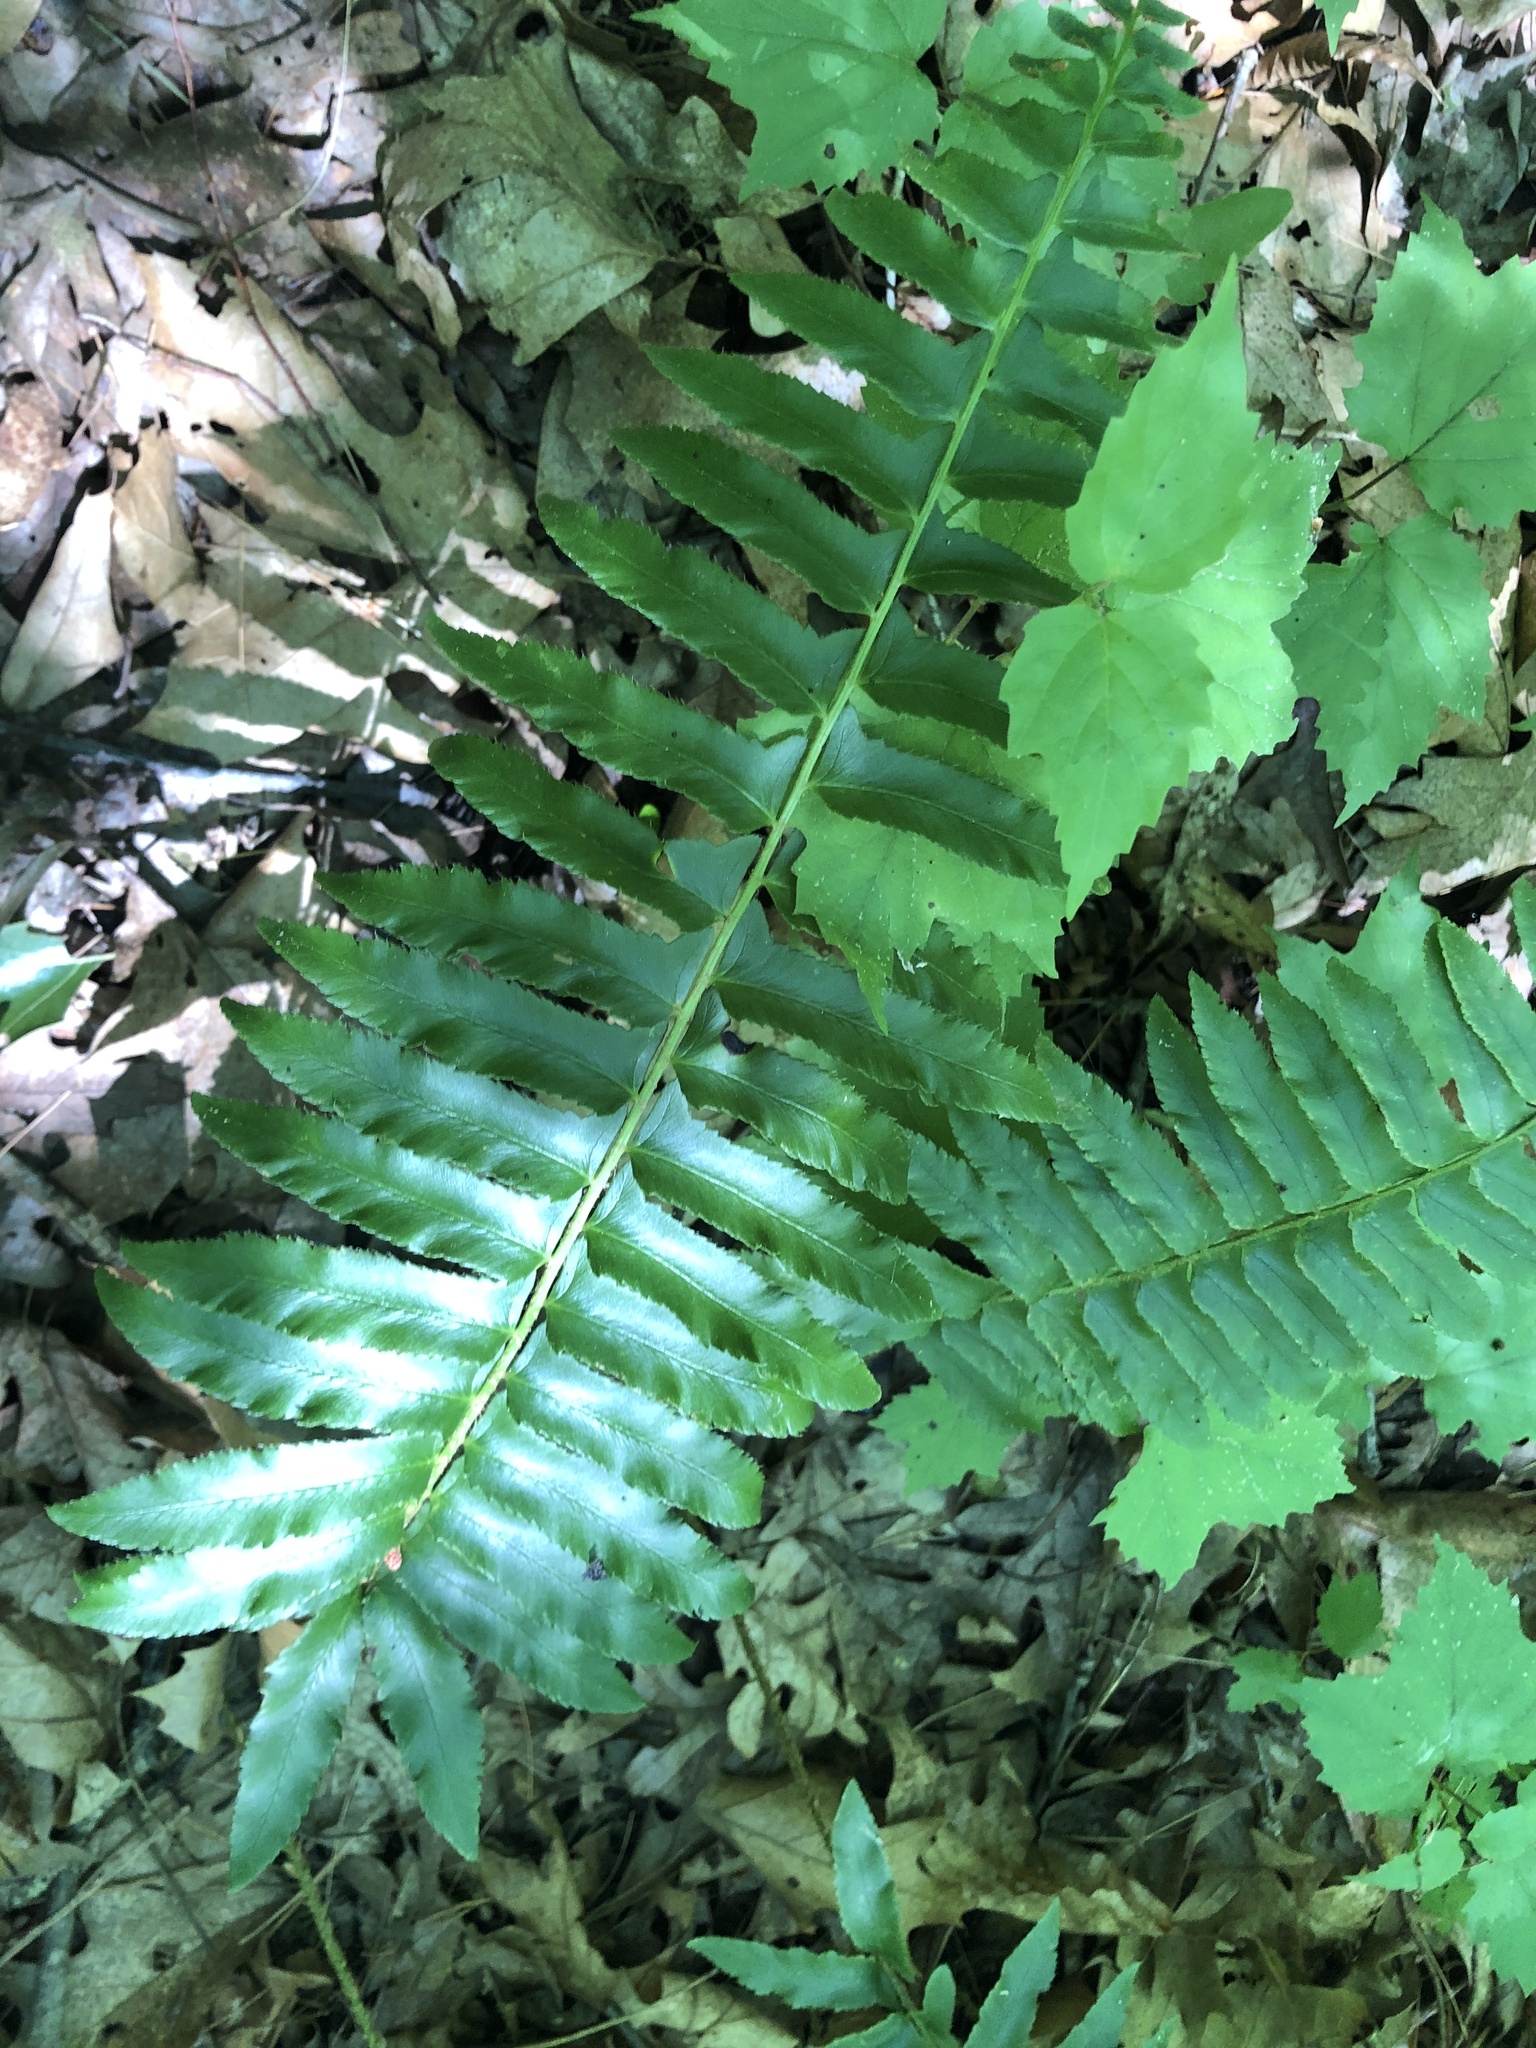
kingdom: Plantae
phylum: Tracheophyta
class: Polypodiopsida
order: Polypodiales
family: Dryopteridaceae
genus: Polystichum
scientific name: Polystichum acrostichoides
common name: Christmas fern
